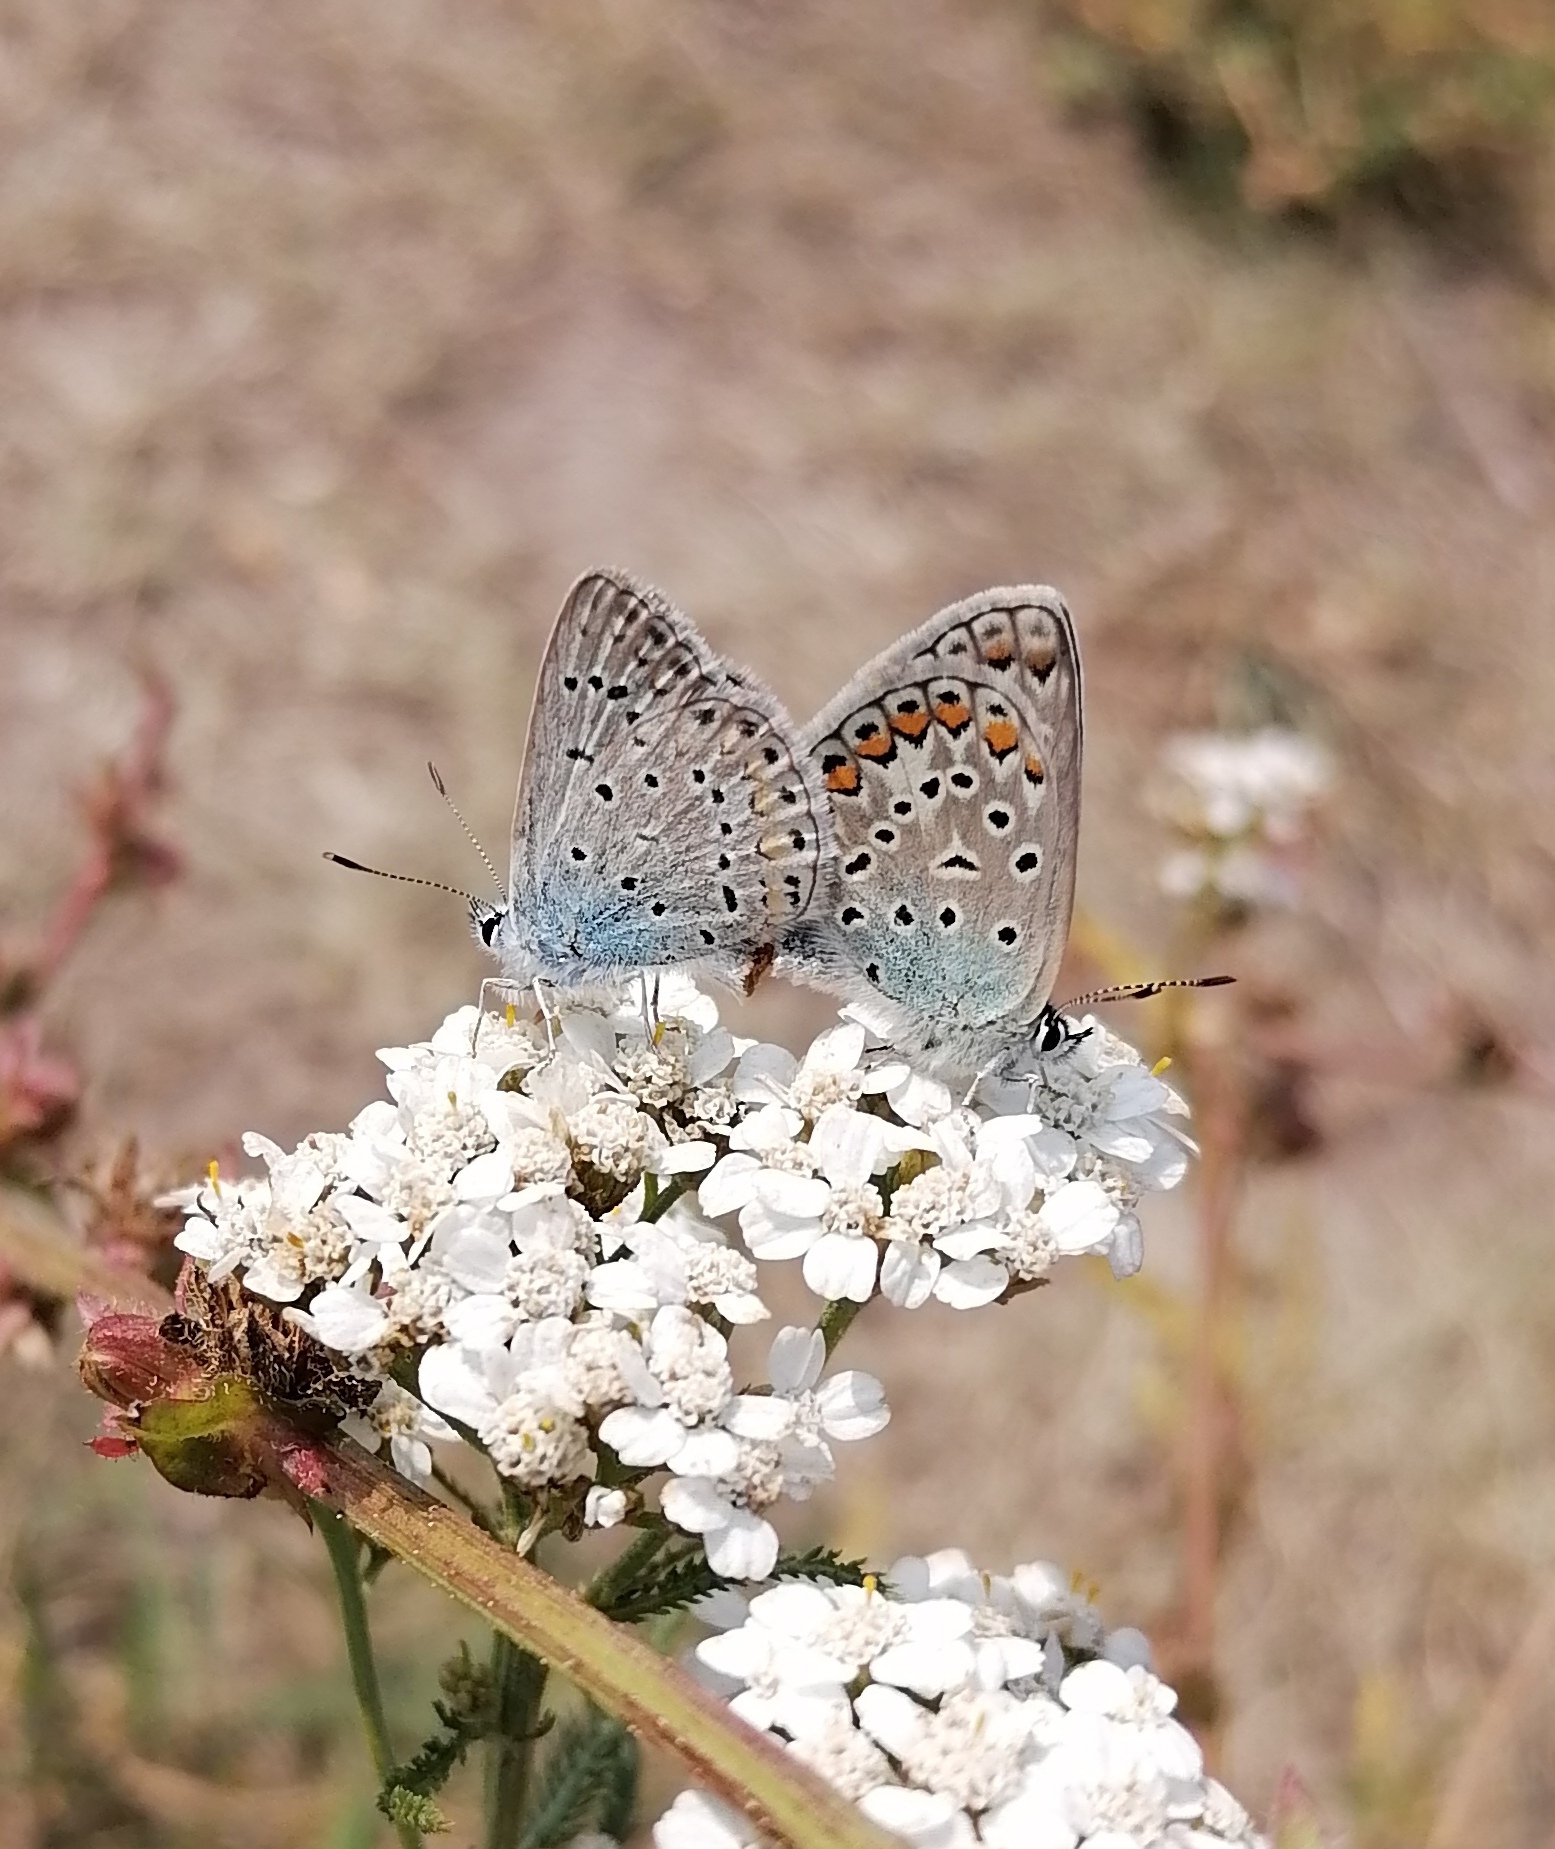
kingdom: Animalia
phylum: Arthropoda
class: Insecta
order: Lepidoptera
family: Lycaenidae
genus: Polyommatus
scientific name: Polyommatus icarus
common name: Common blue
